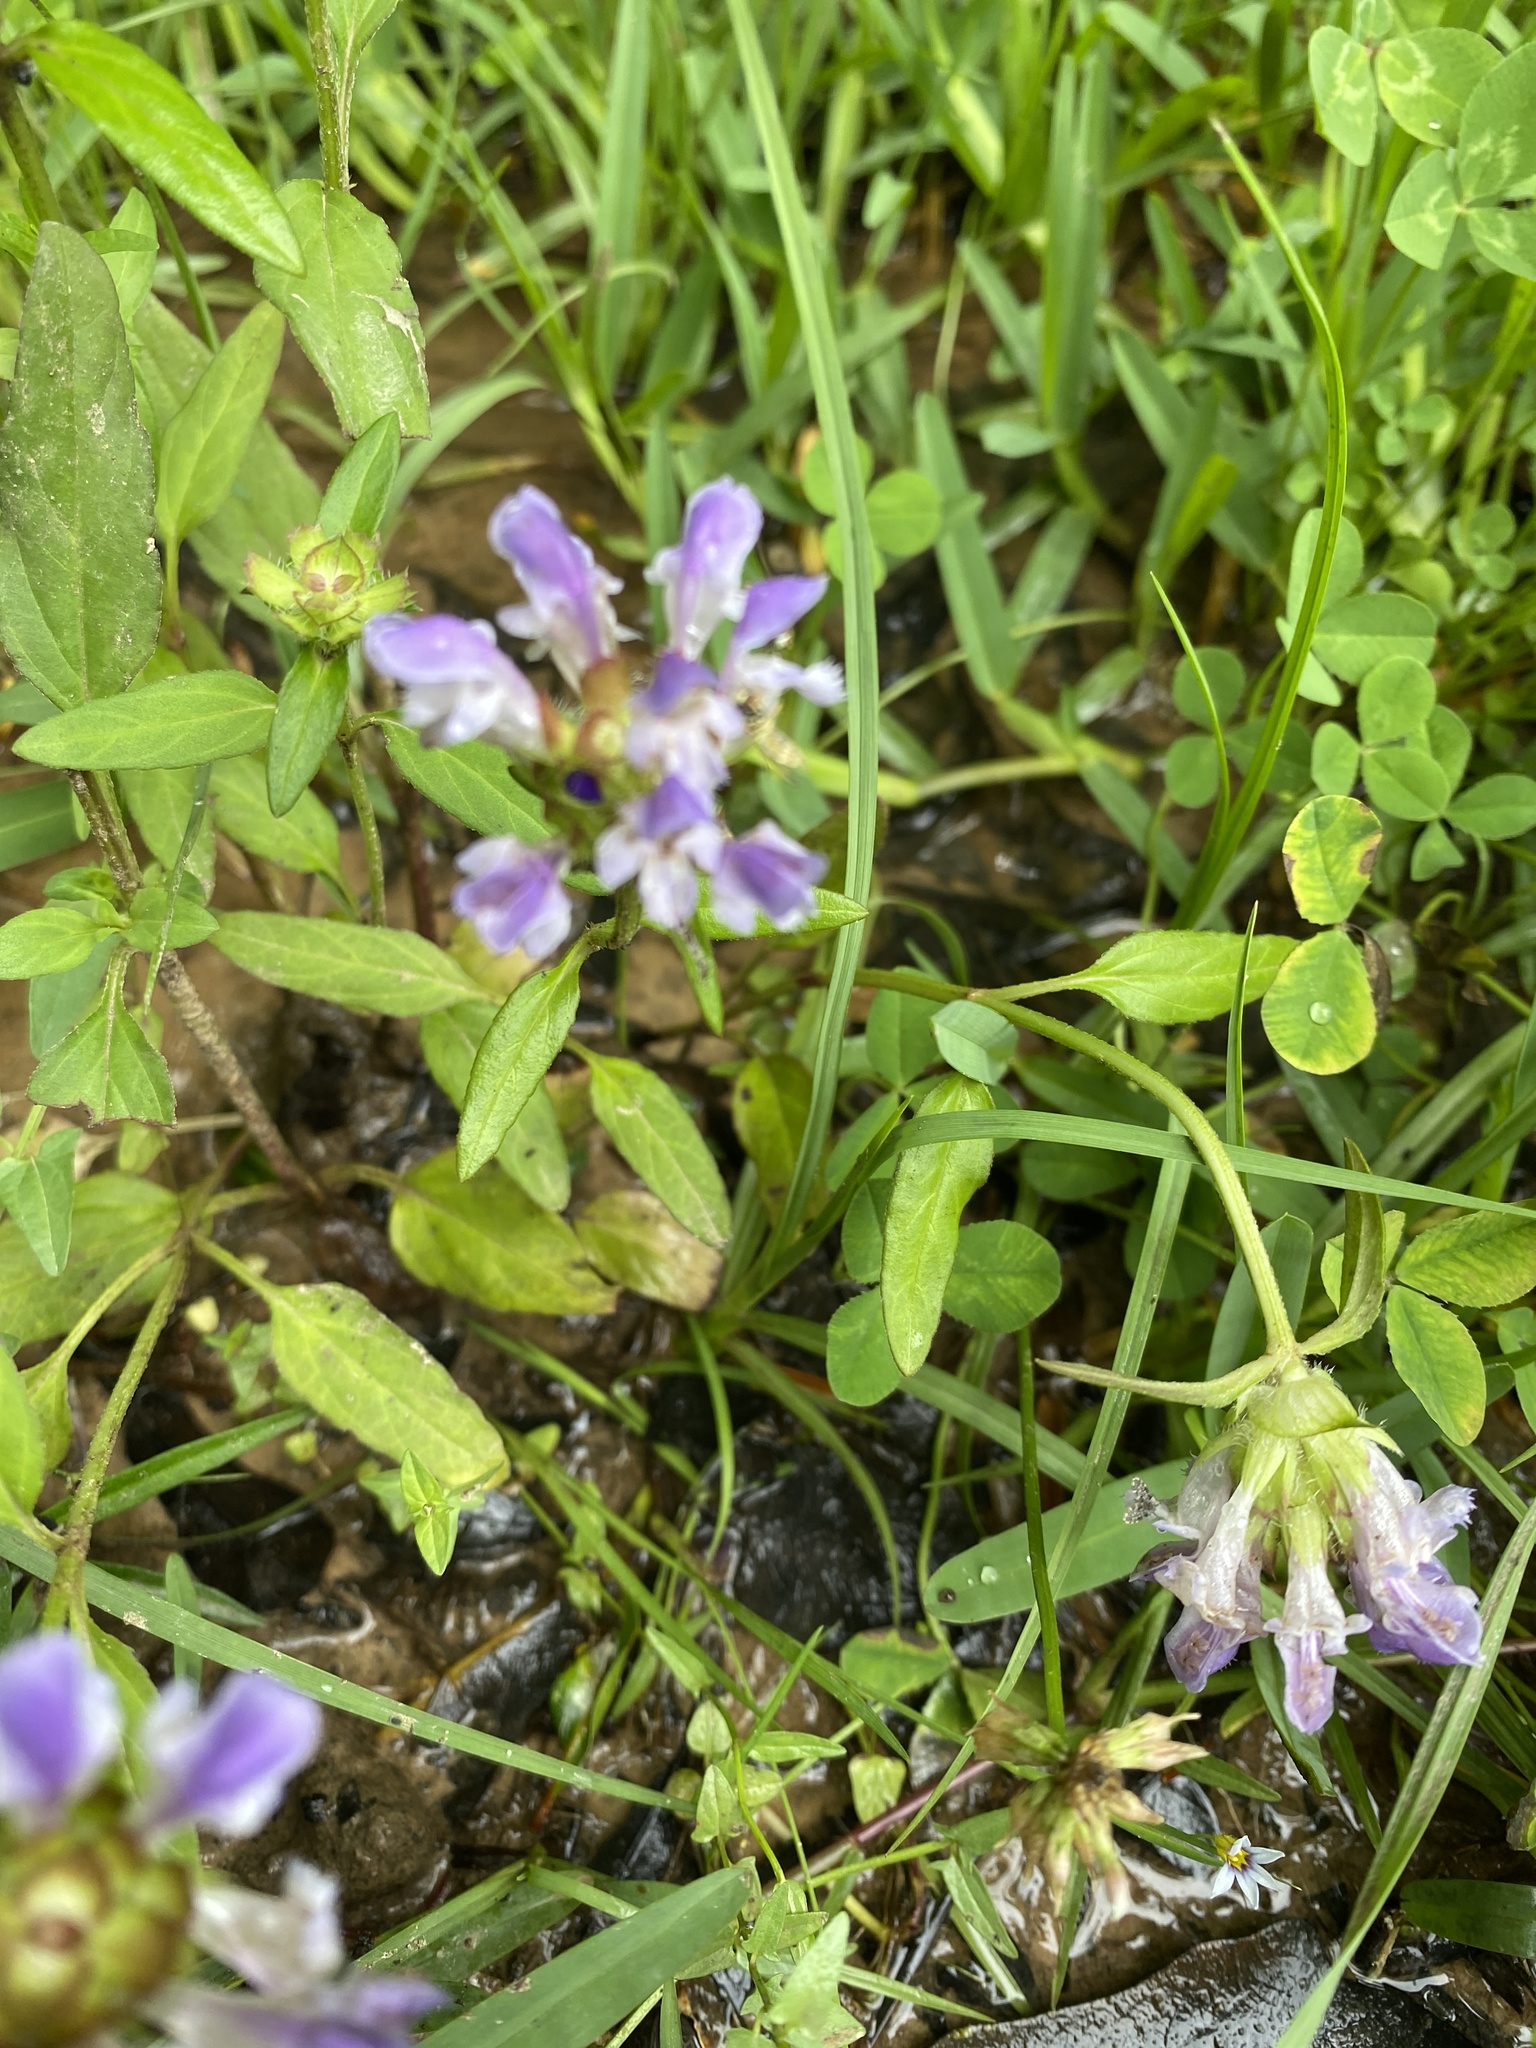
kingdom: Plantae
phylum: Tracheophyta
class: Magnoliopsida
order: Lamiales
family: Lamiaceae
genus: Prunella
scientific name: Prunella vulgaris
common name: Heal-all
